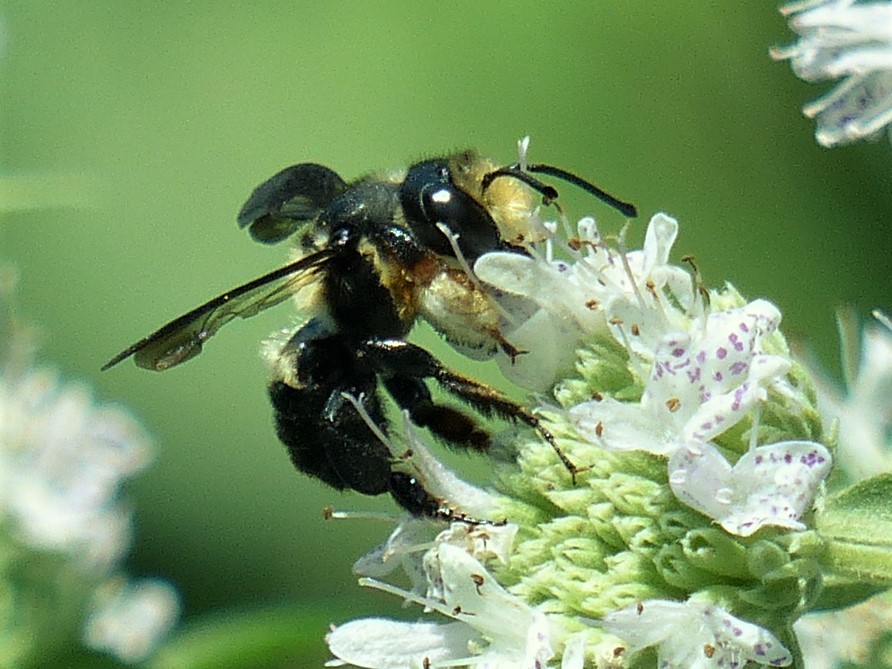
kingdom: Animalia
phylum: Arthropoda
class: Insecta
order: Hymenoptera
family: Megachilidae
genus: Megachile
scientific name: Megachile xylocopoides
